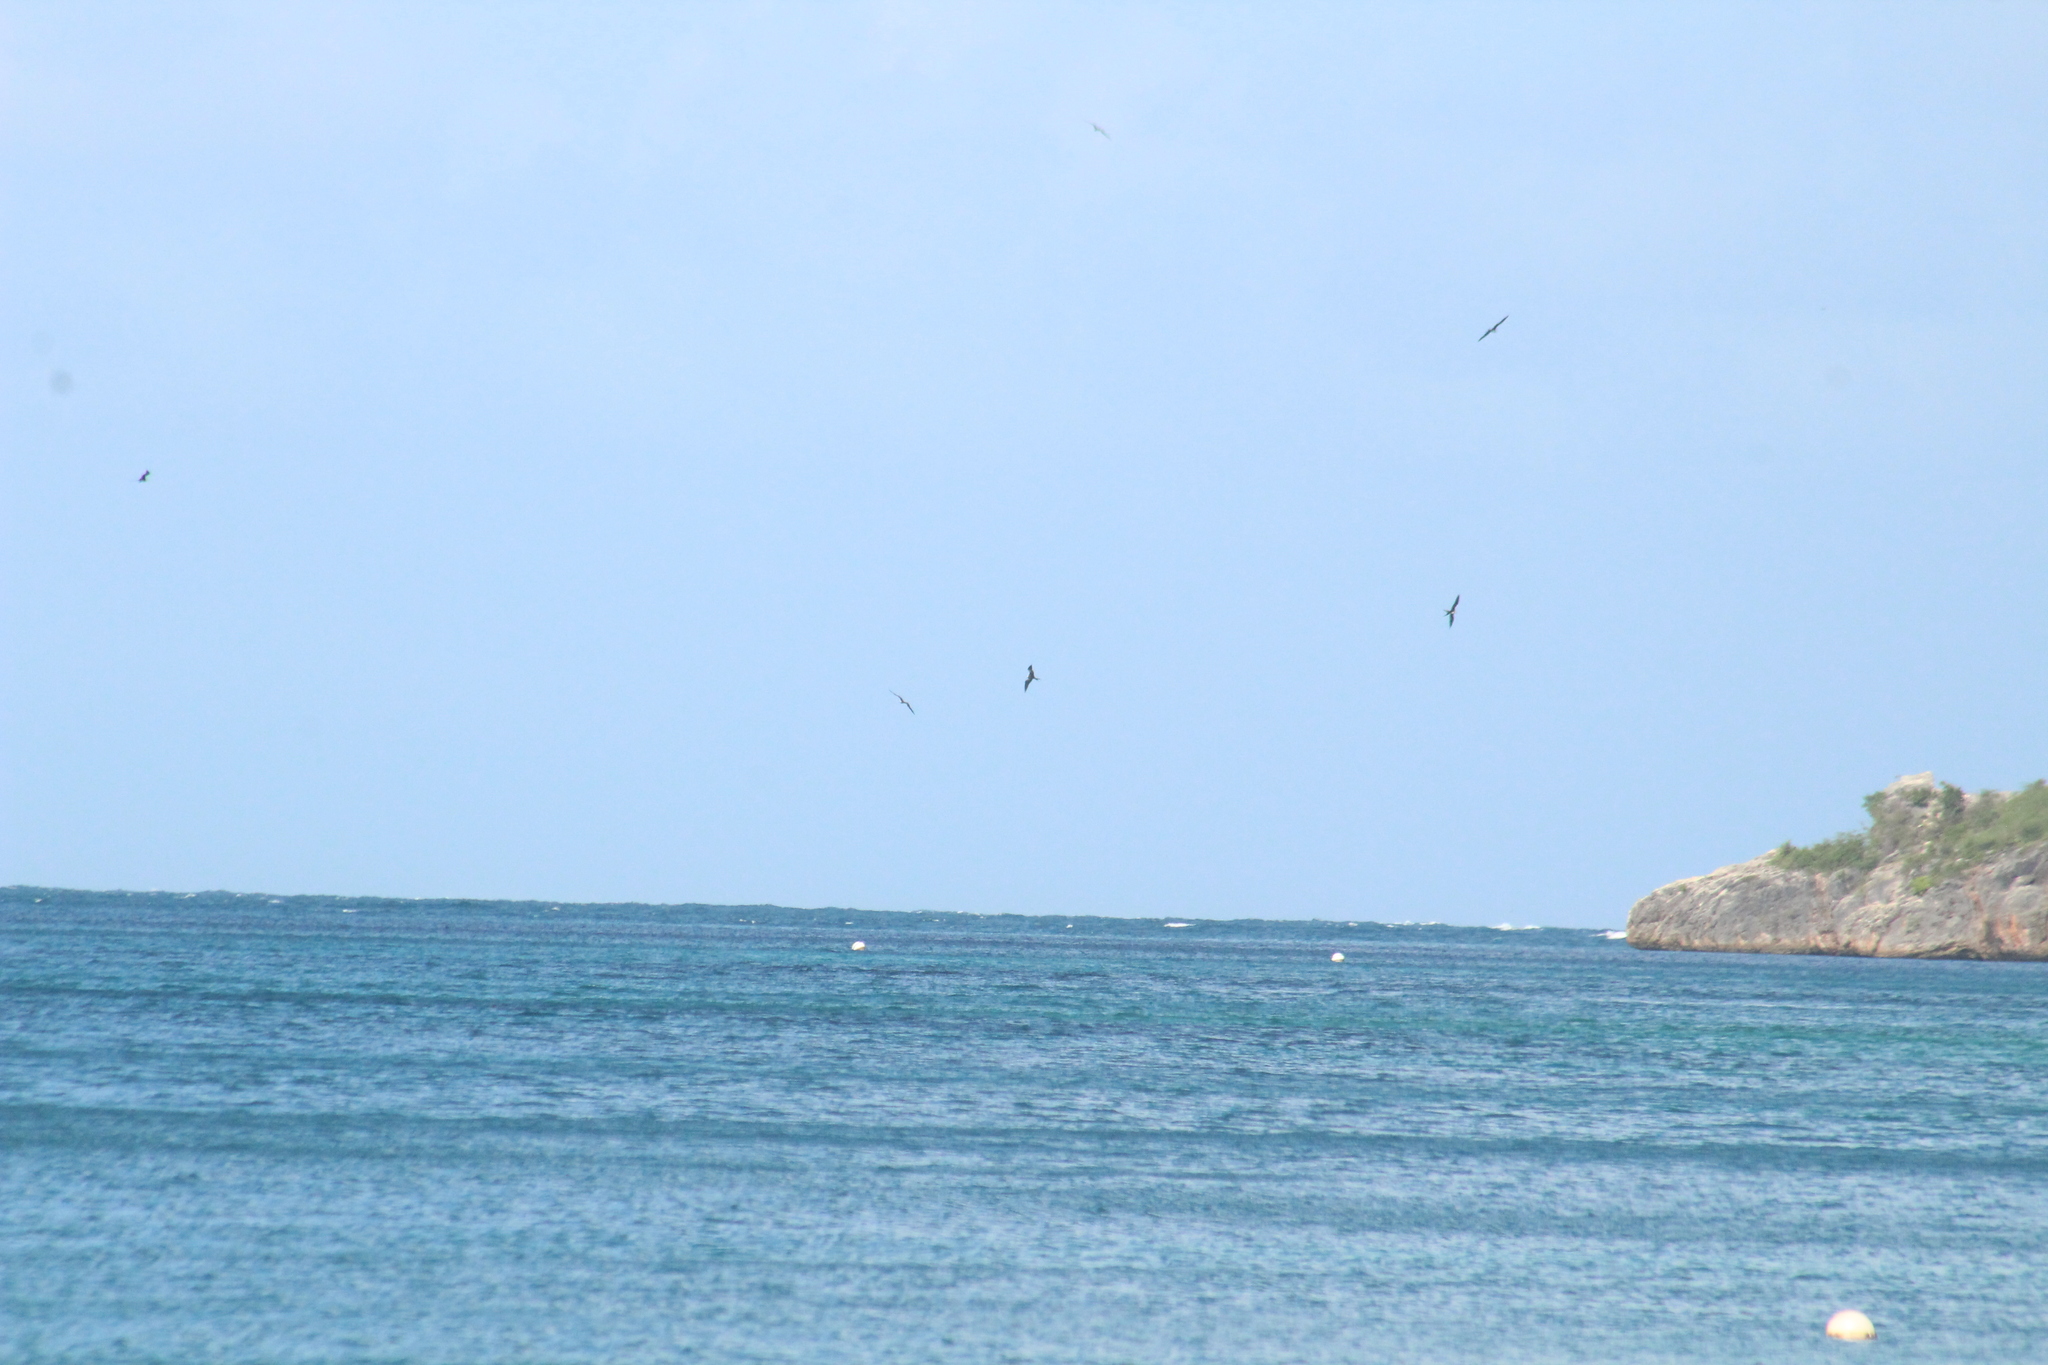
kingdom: Animalia
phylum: Chordata
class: Aves
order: Suliformes
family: Fregatidae
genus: Fregata
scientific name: Fregata magnificens
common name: Magnificent frigatebird
